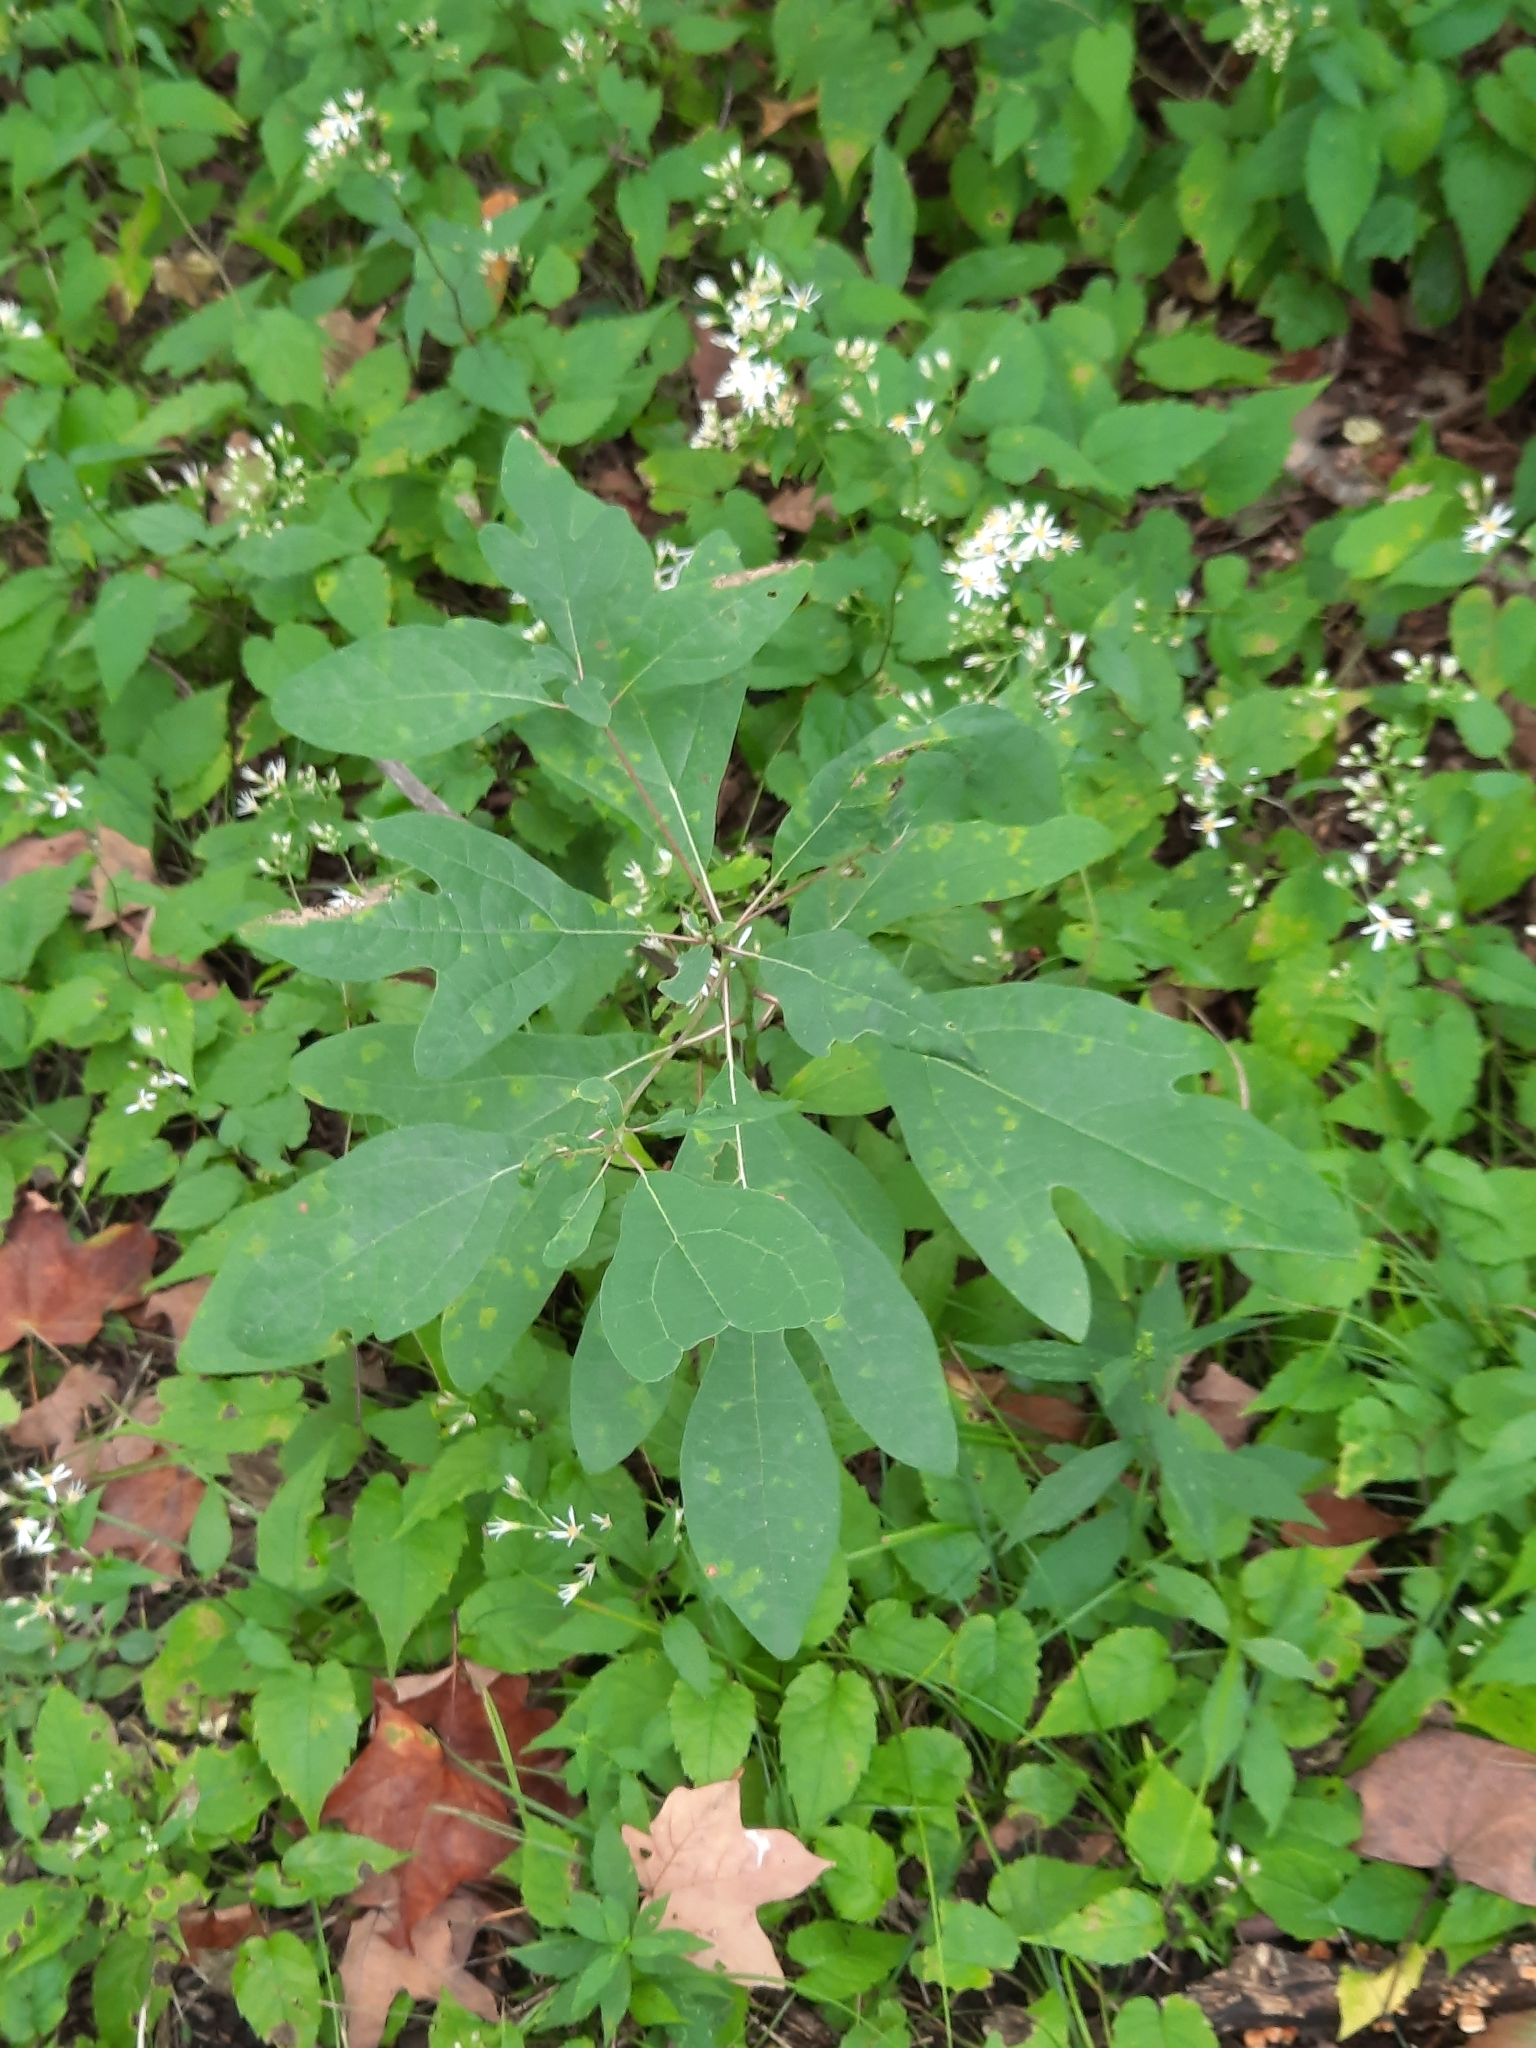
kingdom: Plantae
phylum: Tracheophyta
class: Magnoliopsida
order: Laurales
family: Lauraceae
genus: Sassafras
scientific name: Sassafras albidum
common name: Sassafras
